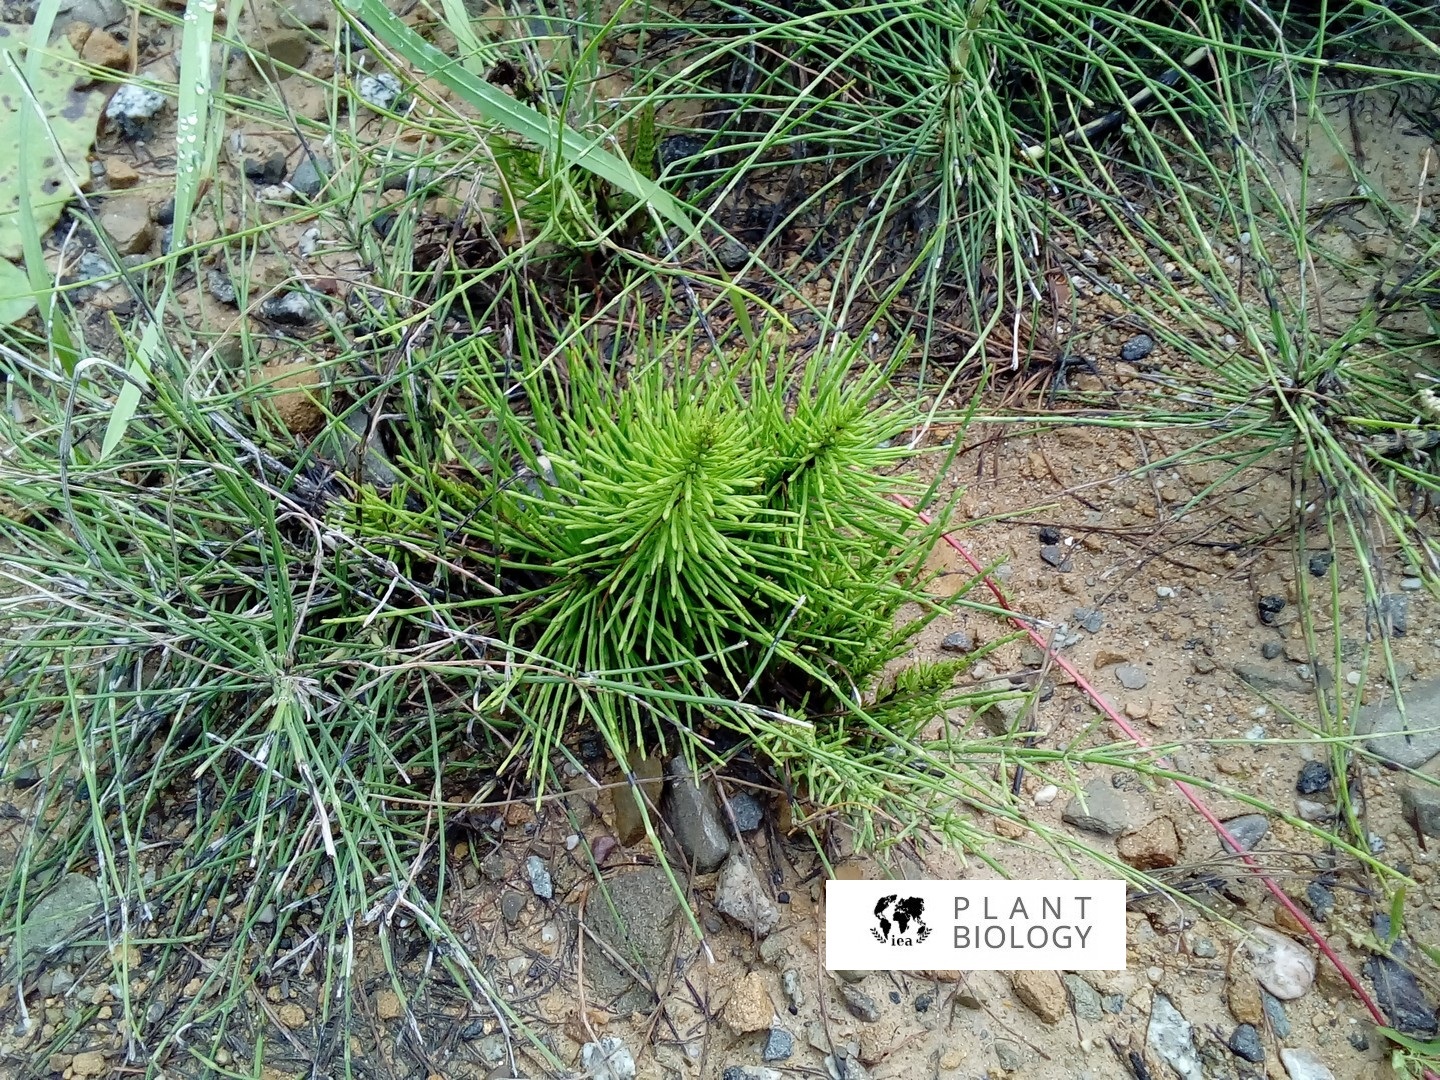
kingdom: Plantae
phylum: Tracheophyta
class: Polypodiopsida
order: Equisetales
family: Equisetaceae
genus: Equisetum
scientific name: Equisetum telmateia
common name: Great horsetail
